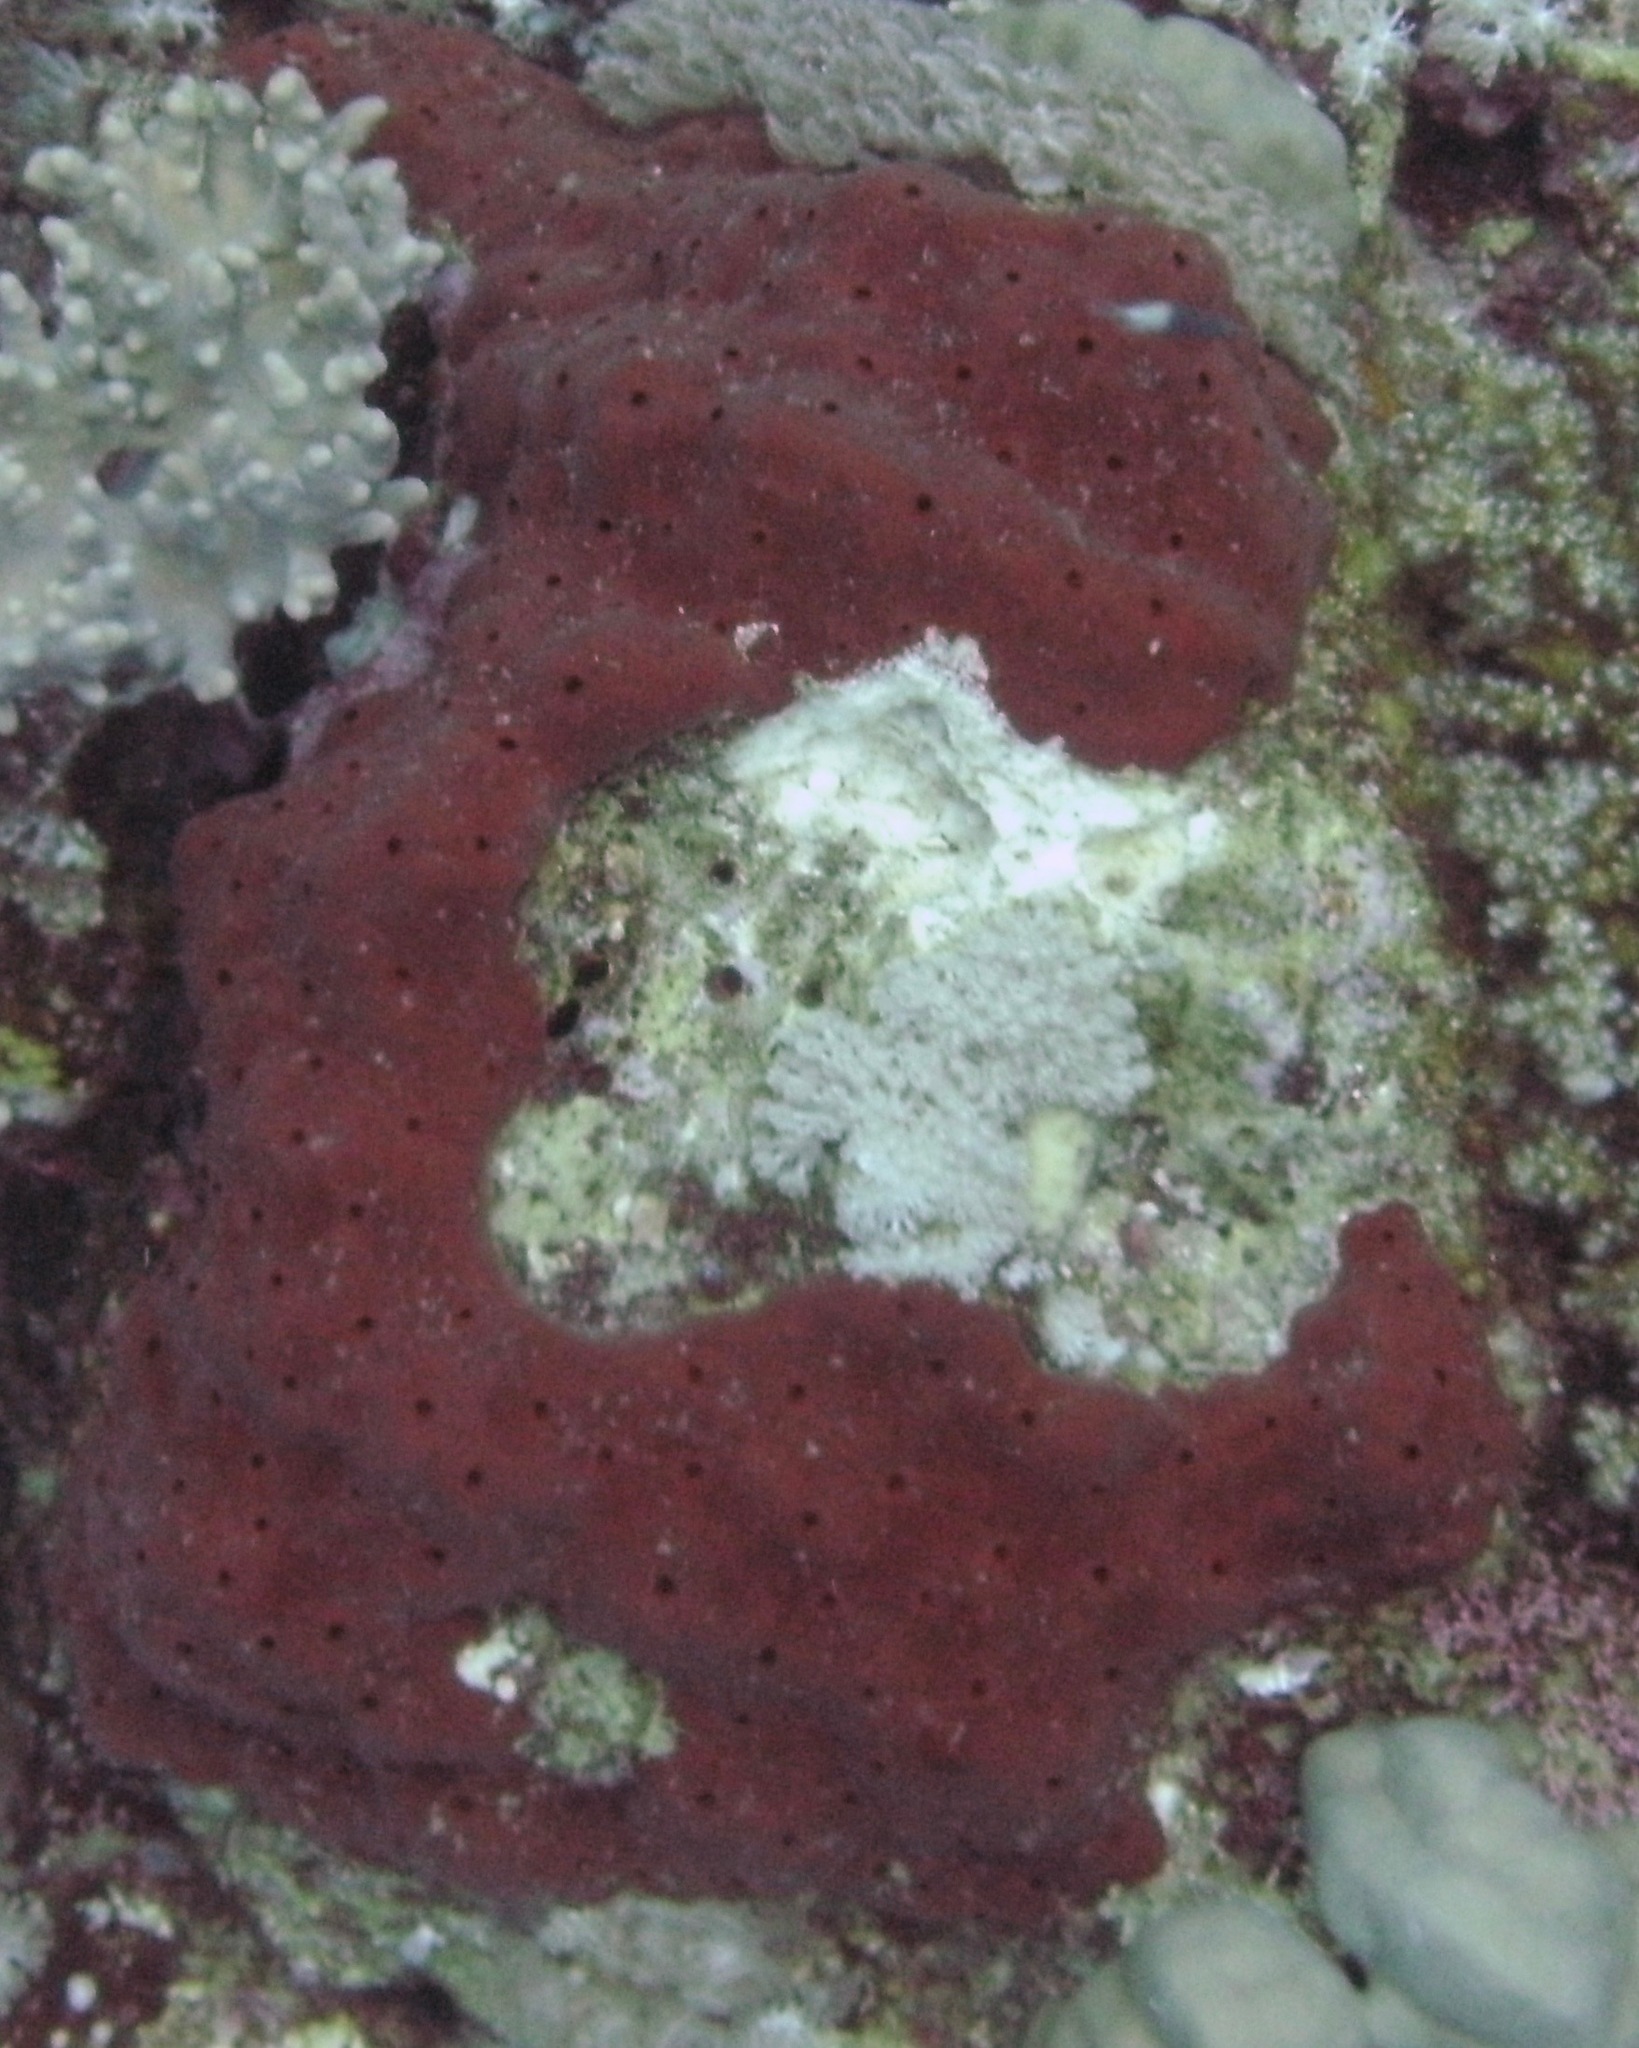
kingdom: Animalia
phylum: Porifera
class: Demospongiae
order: Clionaida
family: Clionaidae
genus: Pione
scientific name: Pione mussae
